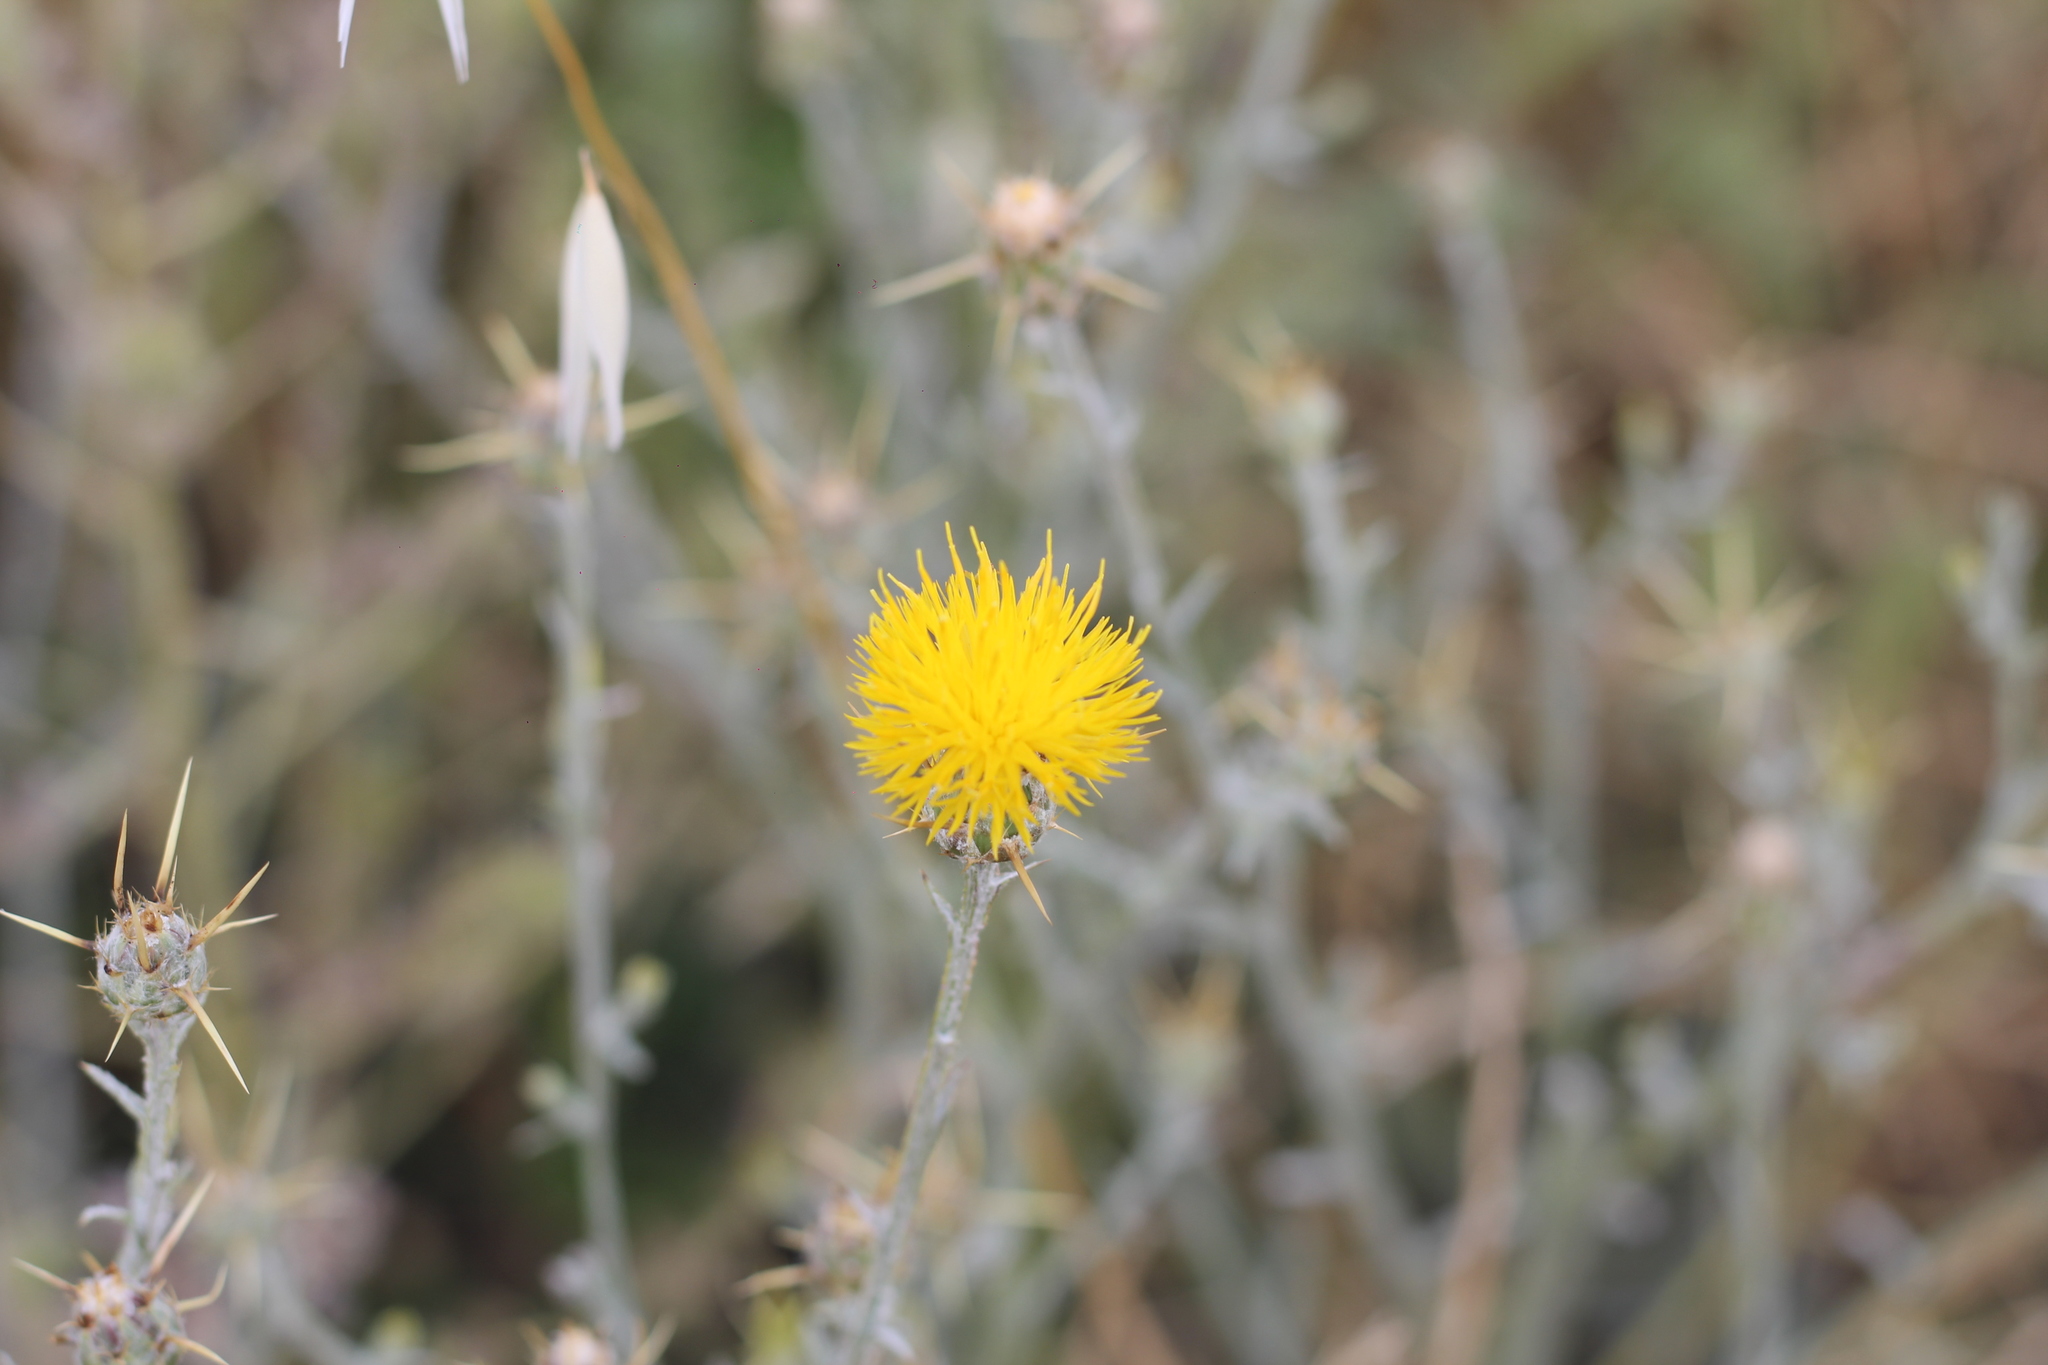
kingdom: Plantae
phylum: Tracheophyta
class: Magnoliopsida
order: Asterales
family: Asteraceae
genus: Centaurea
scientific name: Centaurea solstitialis
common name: Yellow star-thistle
